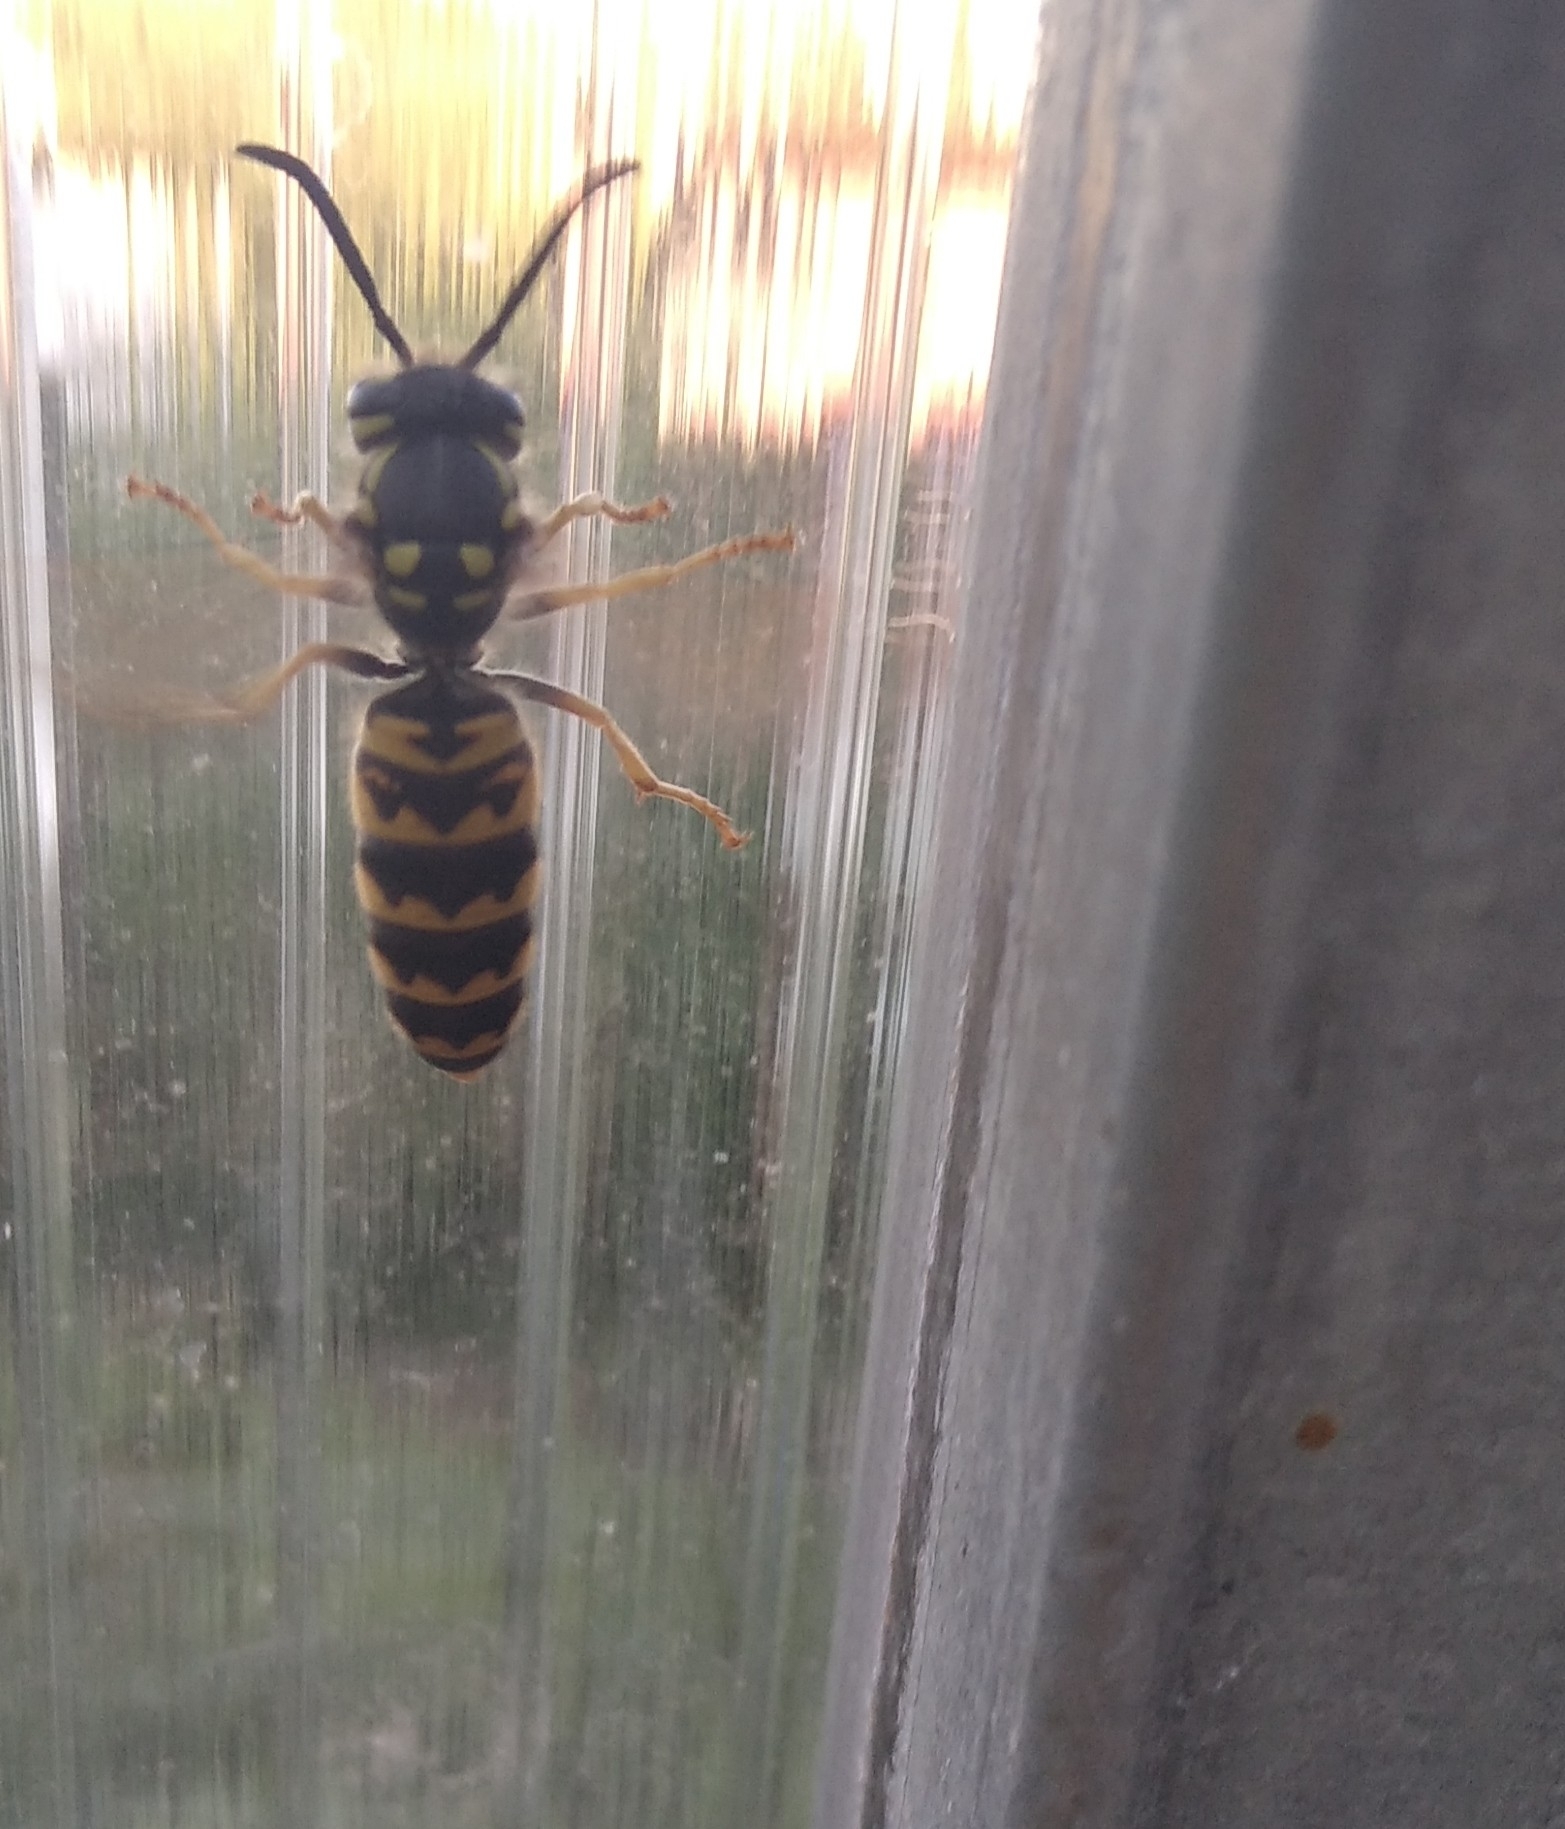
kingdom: Animalia
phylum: Arthropoda
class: Insecta
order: Hymenoptera
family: Vespidae
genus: Vespula
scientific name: Vespula germanica
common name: German wasp
